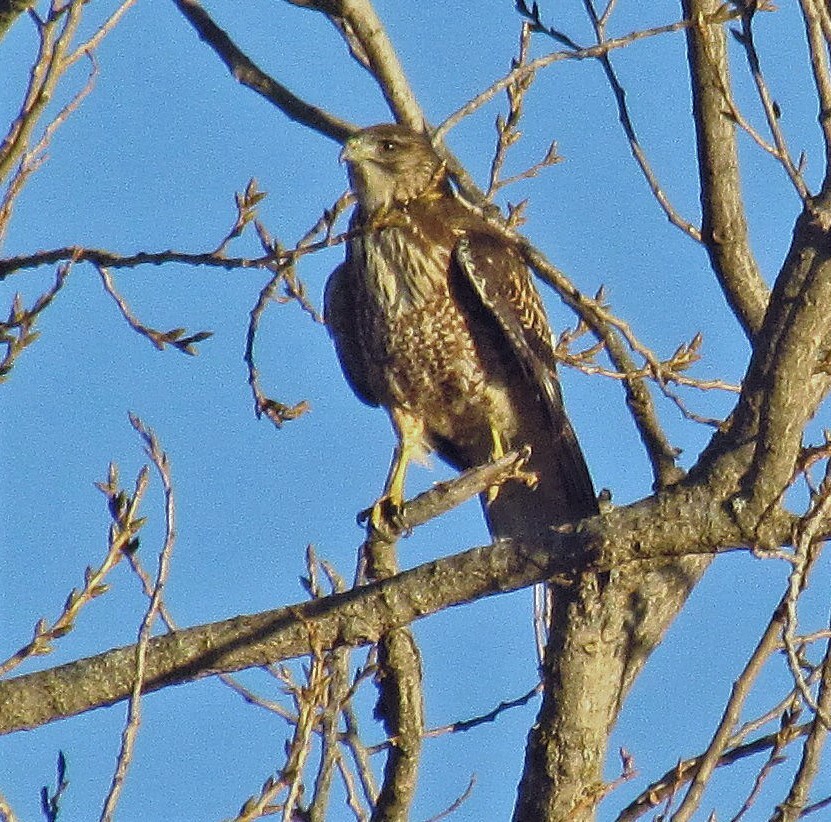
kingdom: Animalia
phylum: Chordata
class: Aves
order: Accipitriformes
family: Accipitridae
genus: Rupornis
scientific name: Rupornis magnirostris
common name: Roadside hawk
